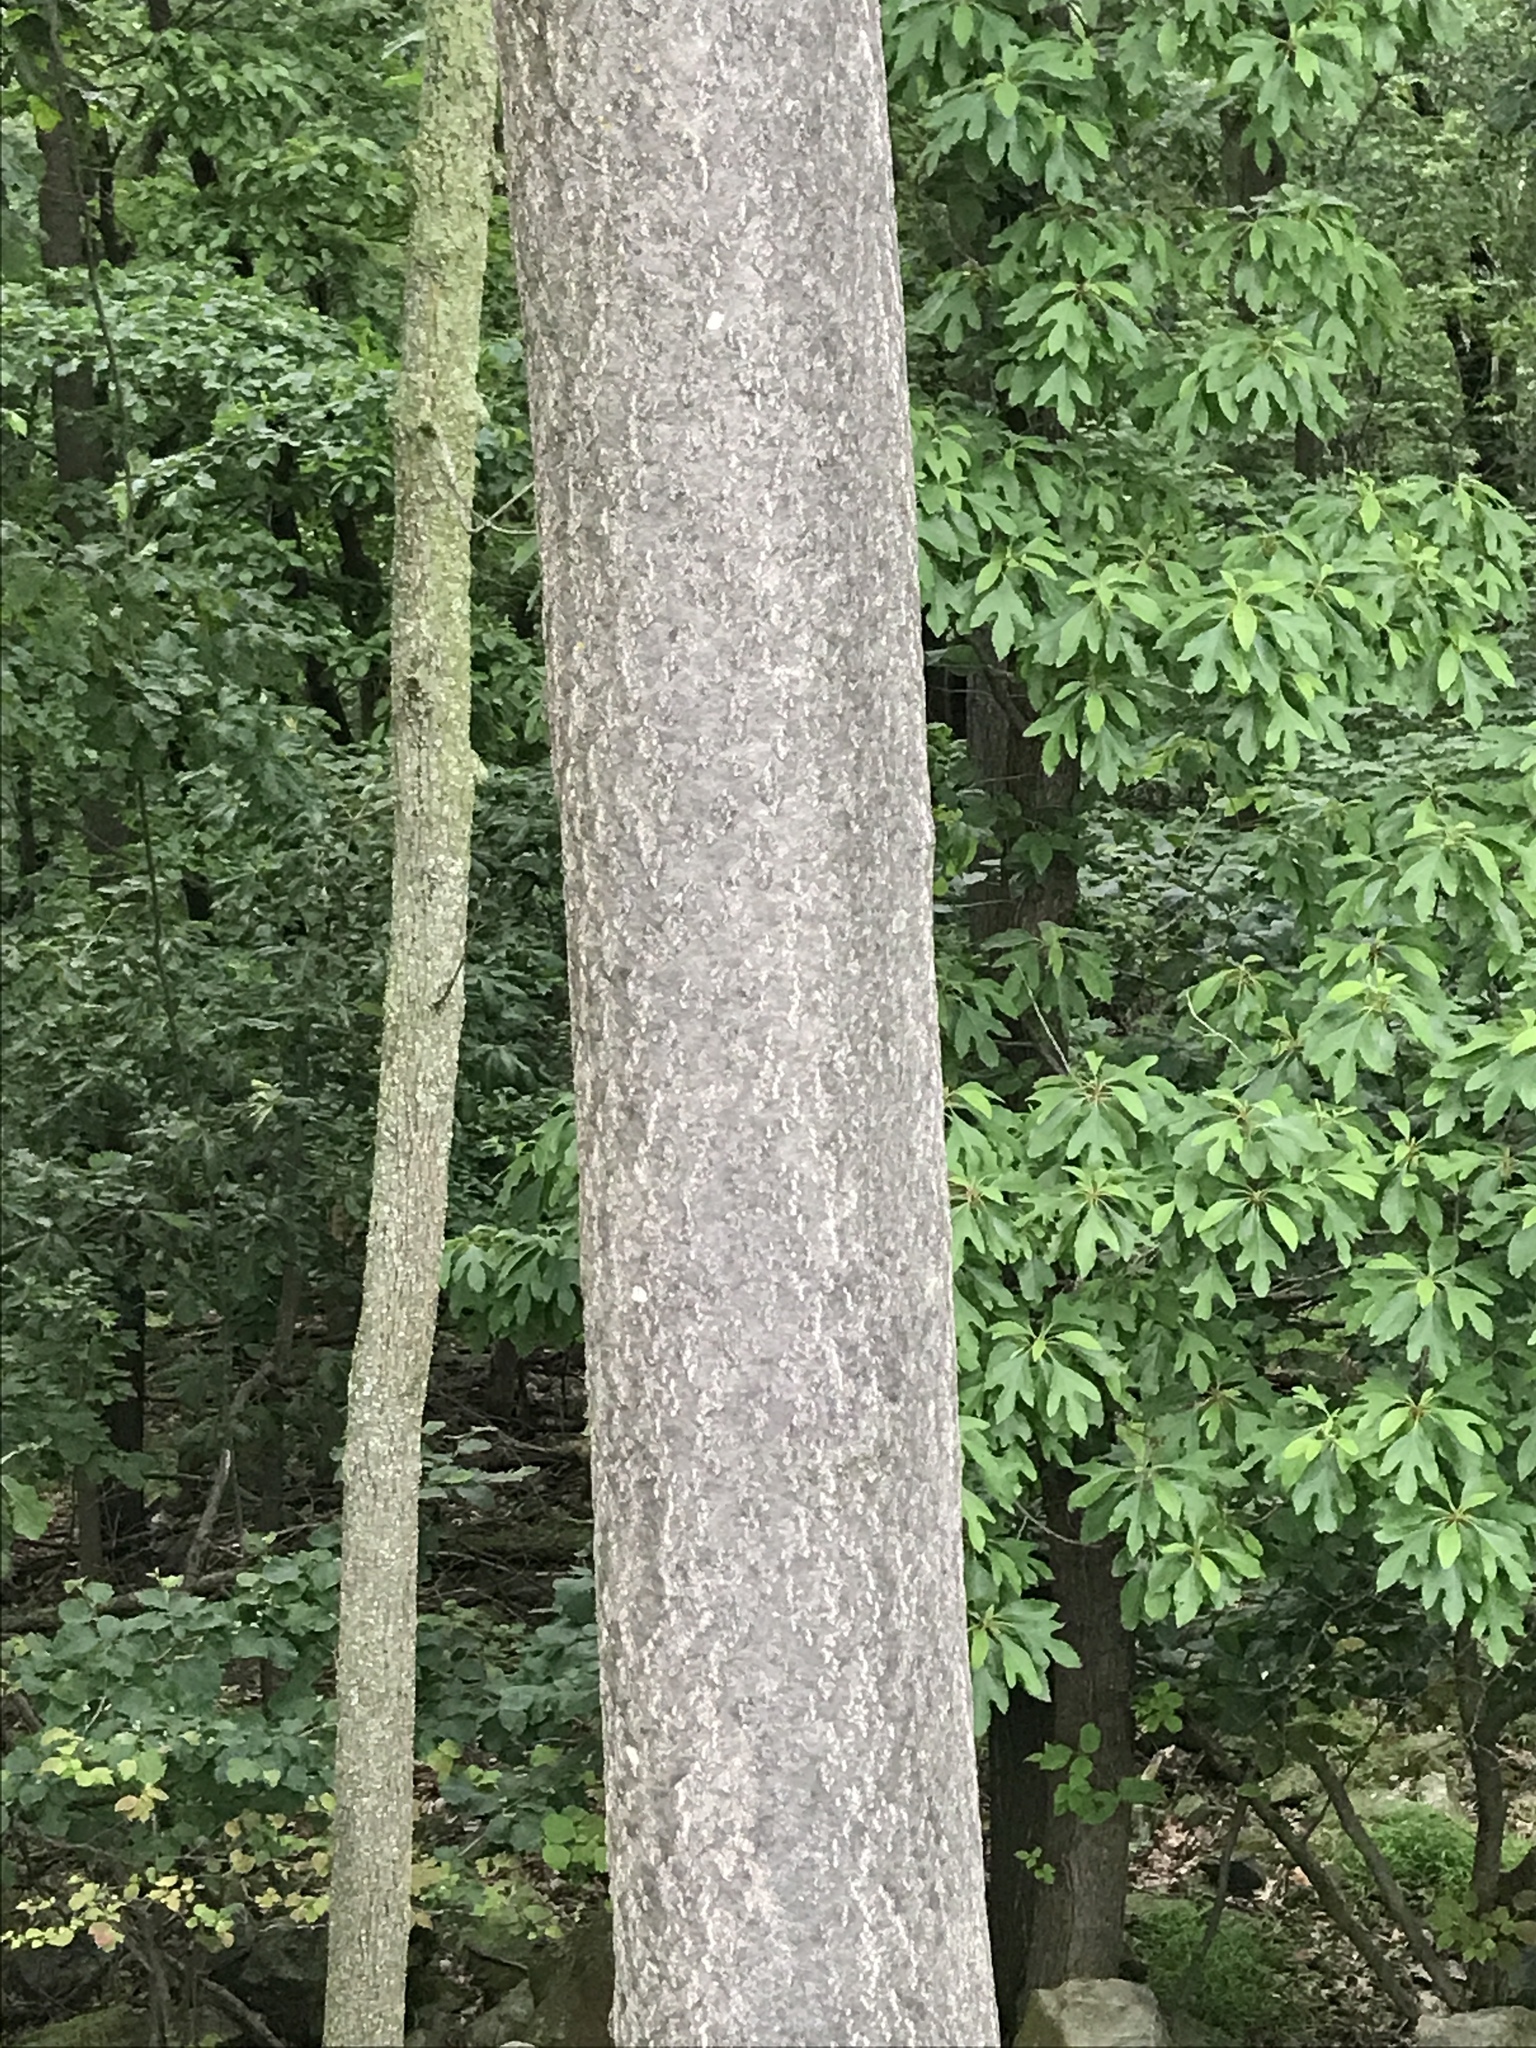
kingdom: Plantae
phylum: Tracheophyta
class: Magnoliopsida
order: Sapindales
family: Simaroubaceae
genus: Ailanthus
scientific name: Ailanthus altissima
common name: Tree-of-heaven
